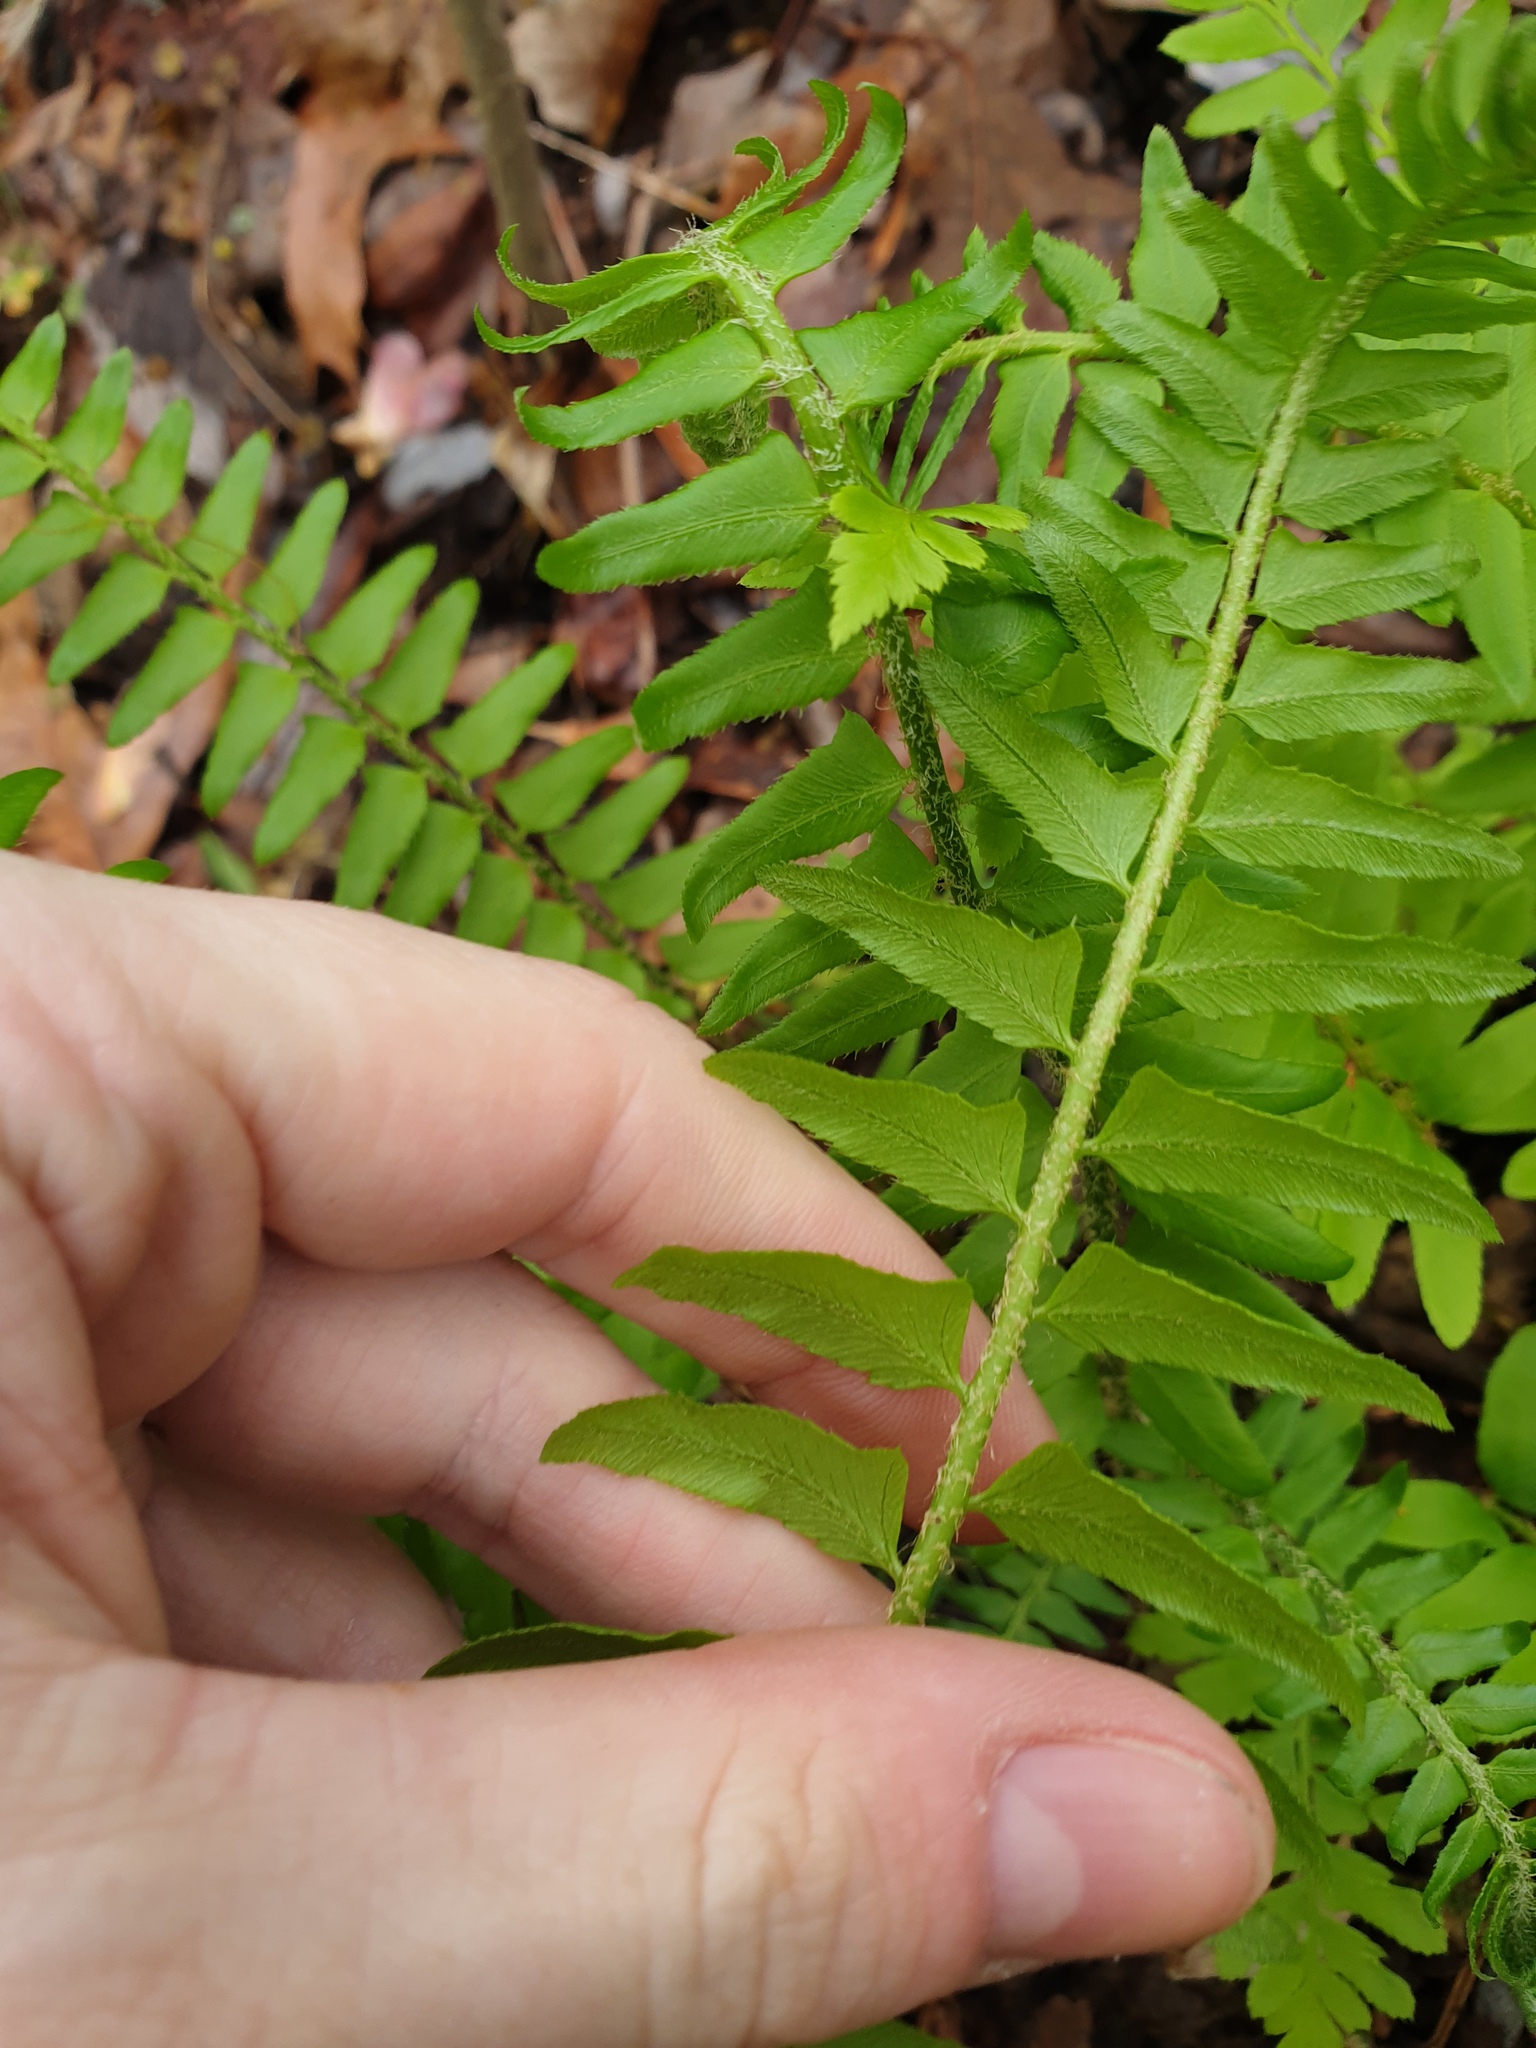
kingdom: Plantae
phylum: Tracheophyta
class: Polypodiopsida
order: Polypodiales
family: Dryopteridaceae
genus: Polystichum
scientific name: Polystichum acrostichoides
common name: Christmas fern
